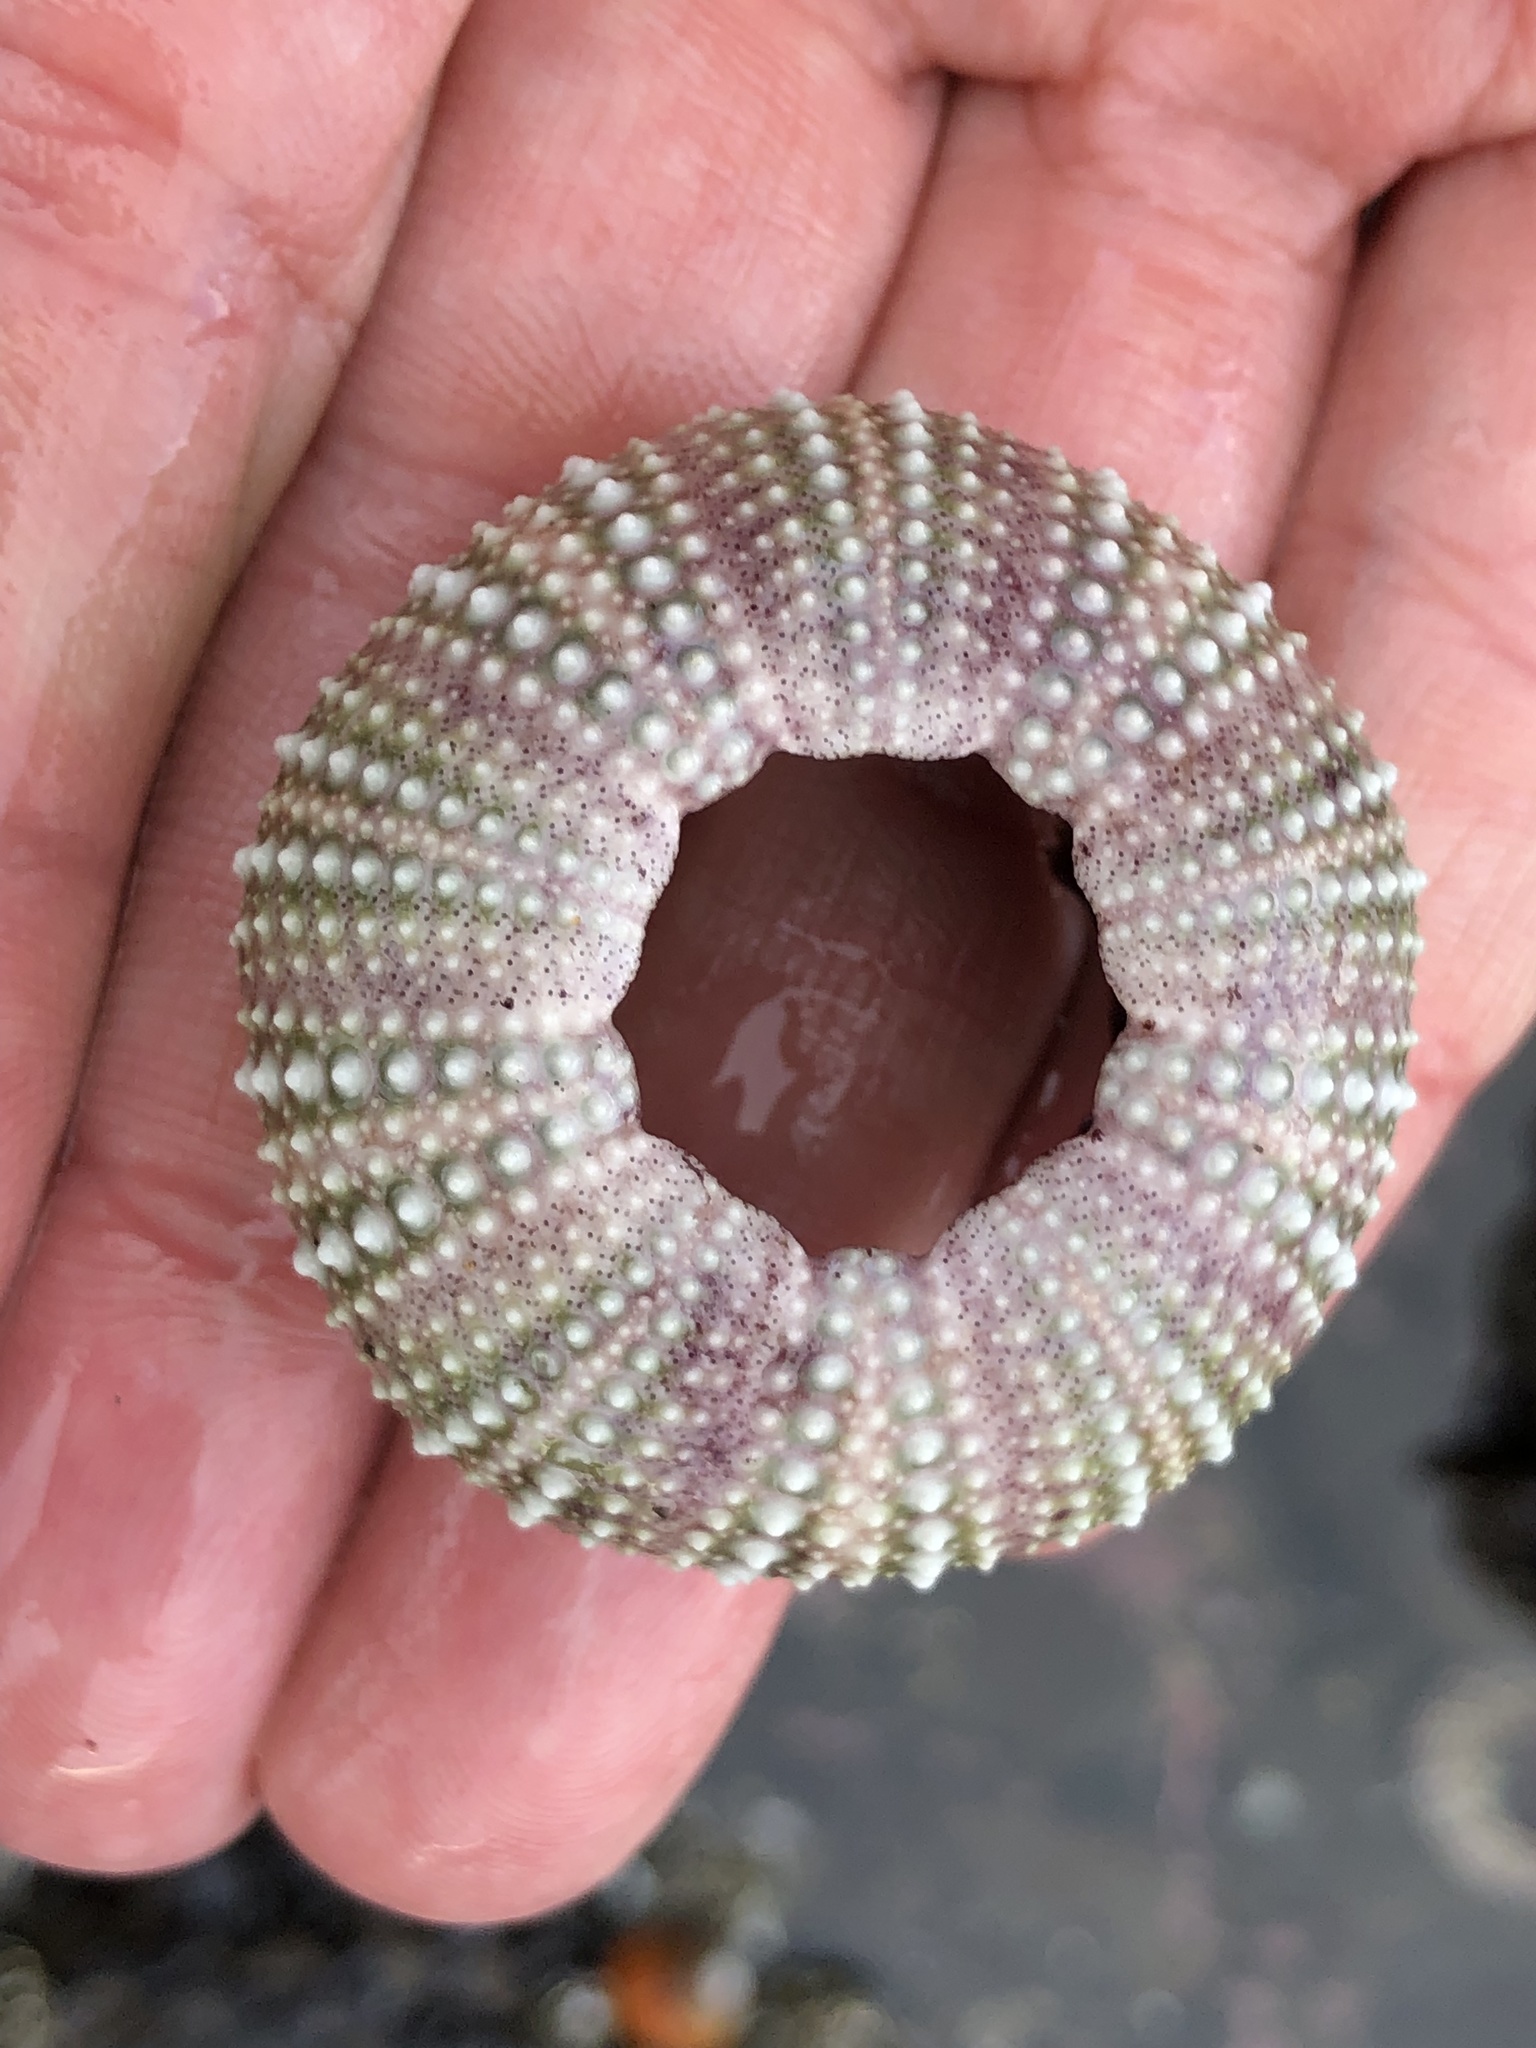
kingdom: Animalia
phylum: Echinodermata
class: Echinoidea
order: Camarodonta
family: Strongylocentrotidae
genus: Strongylocentrotus
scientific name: Strongylocentrotus purpuratus
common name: Purple sea urchin
